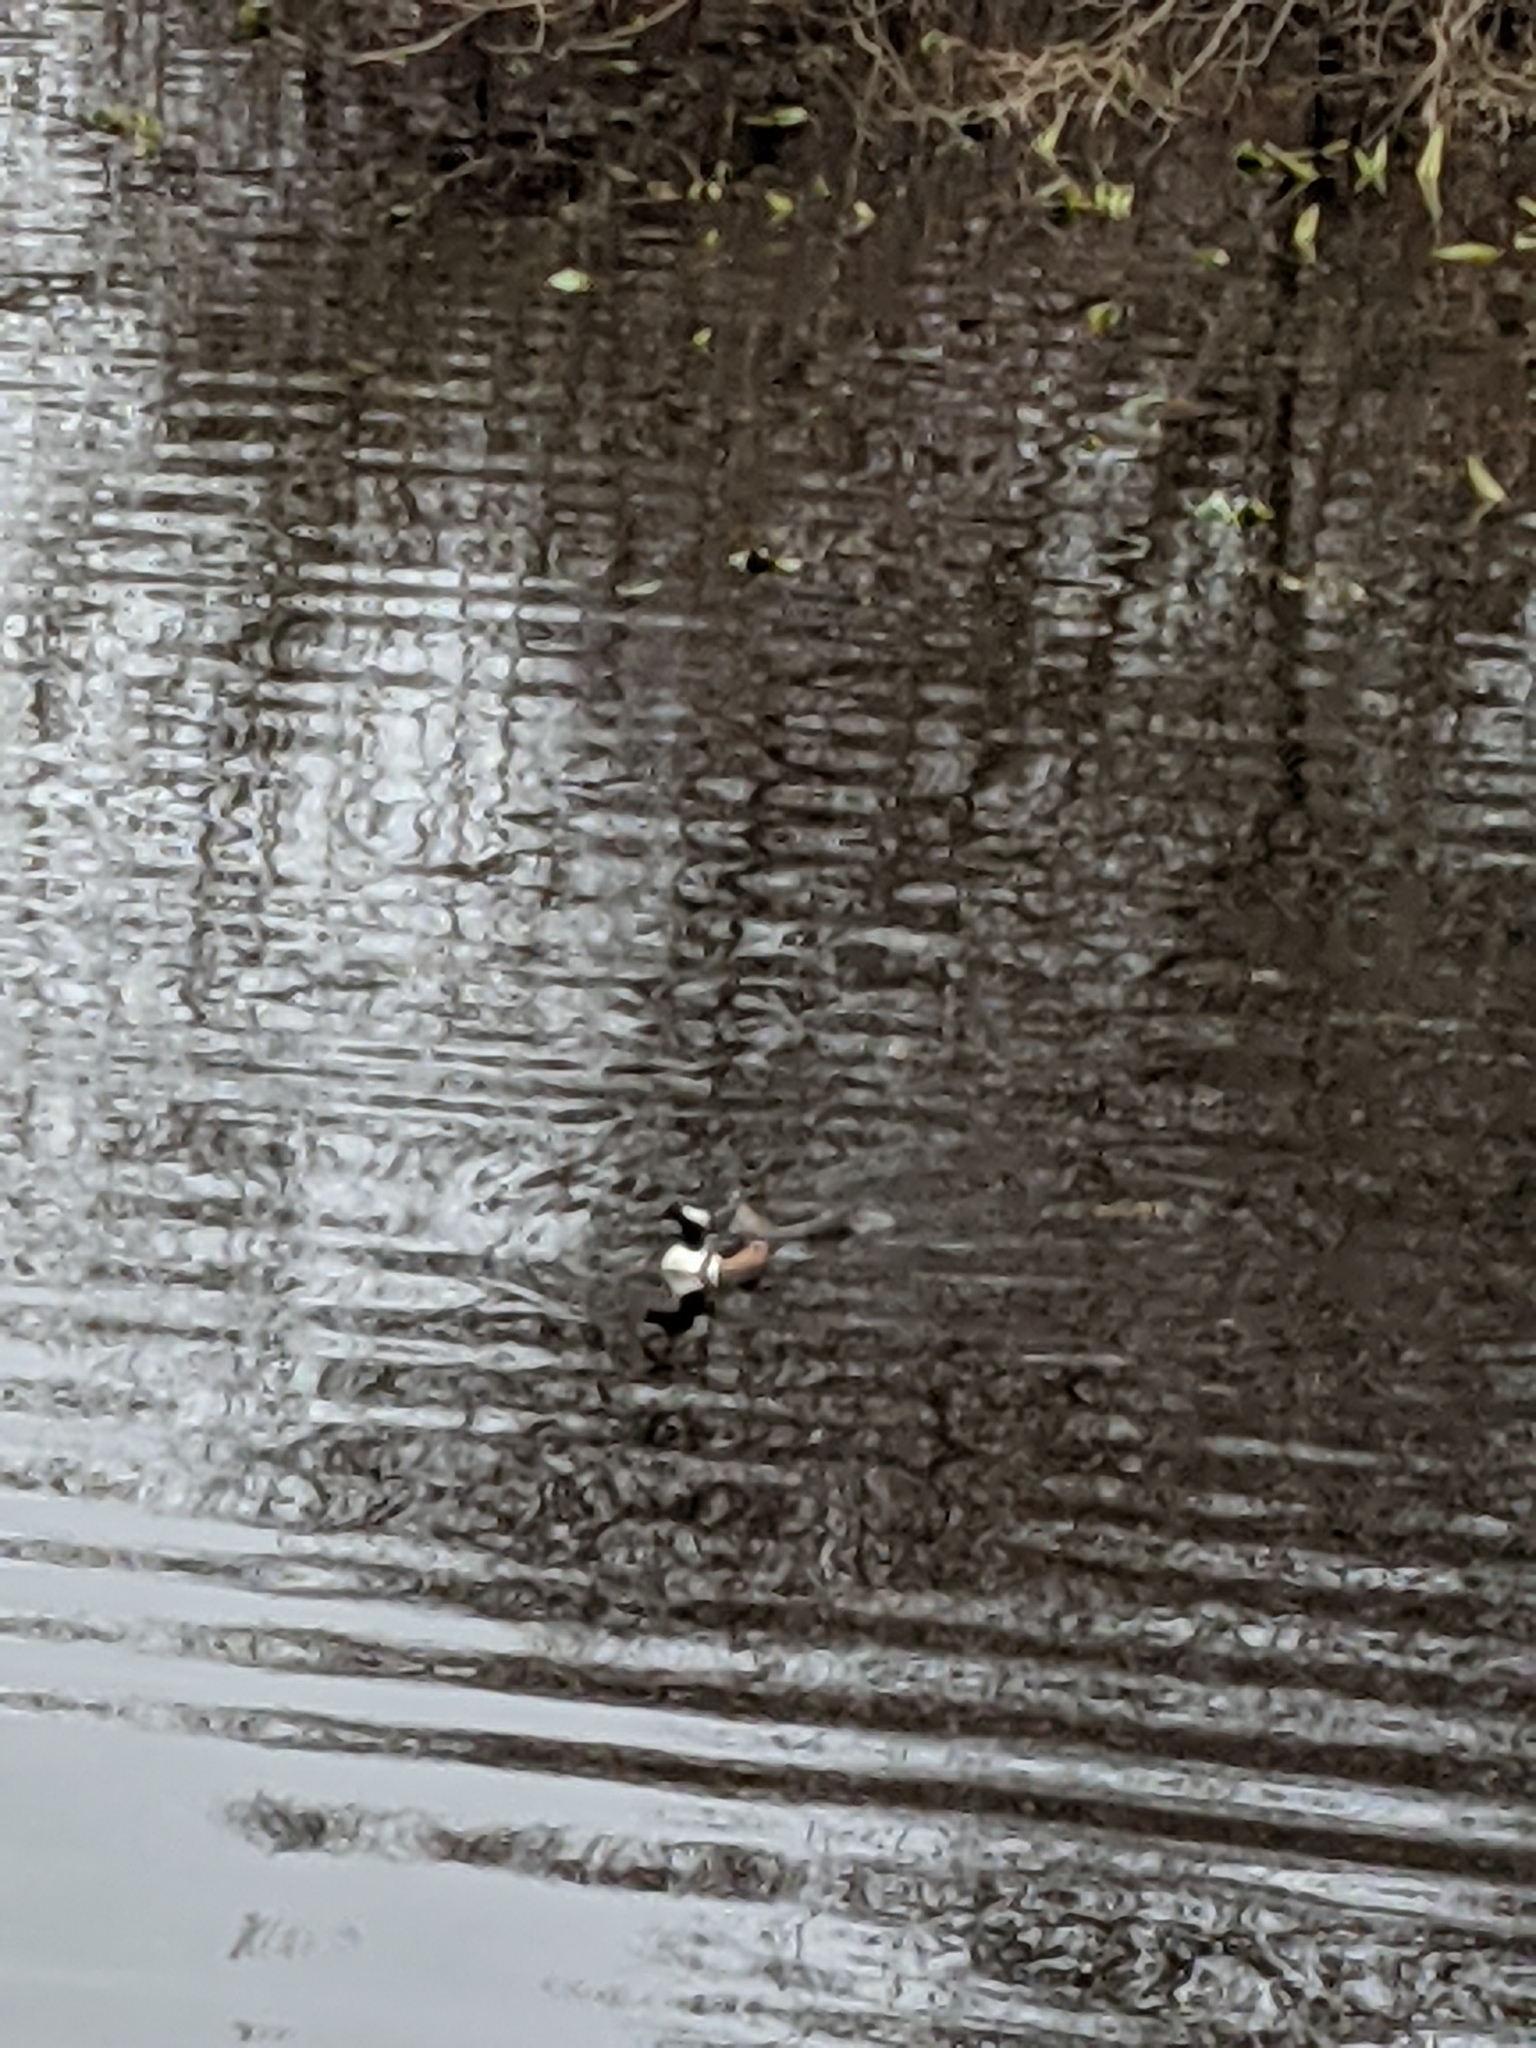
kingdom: Animalia
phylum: Chordata
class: Aves
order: Anseriformes
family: Anatidae
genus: Lophodytes
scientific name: Lophodytes cucullatus
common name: Hooded merganser
